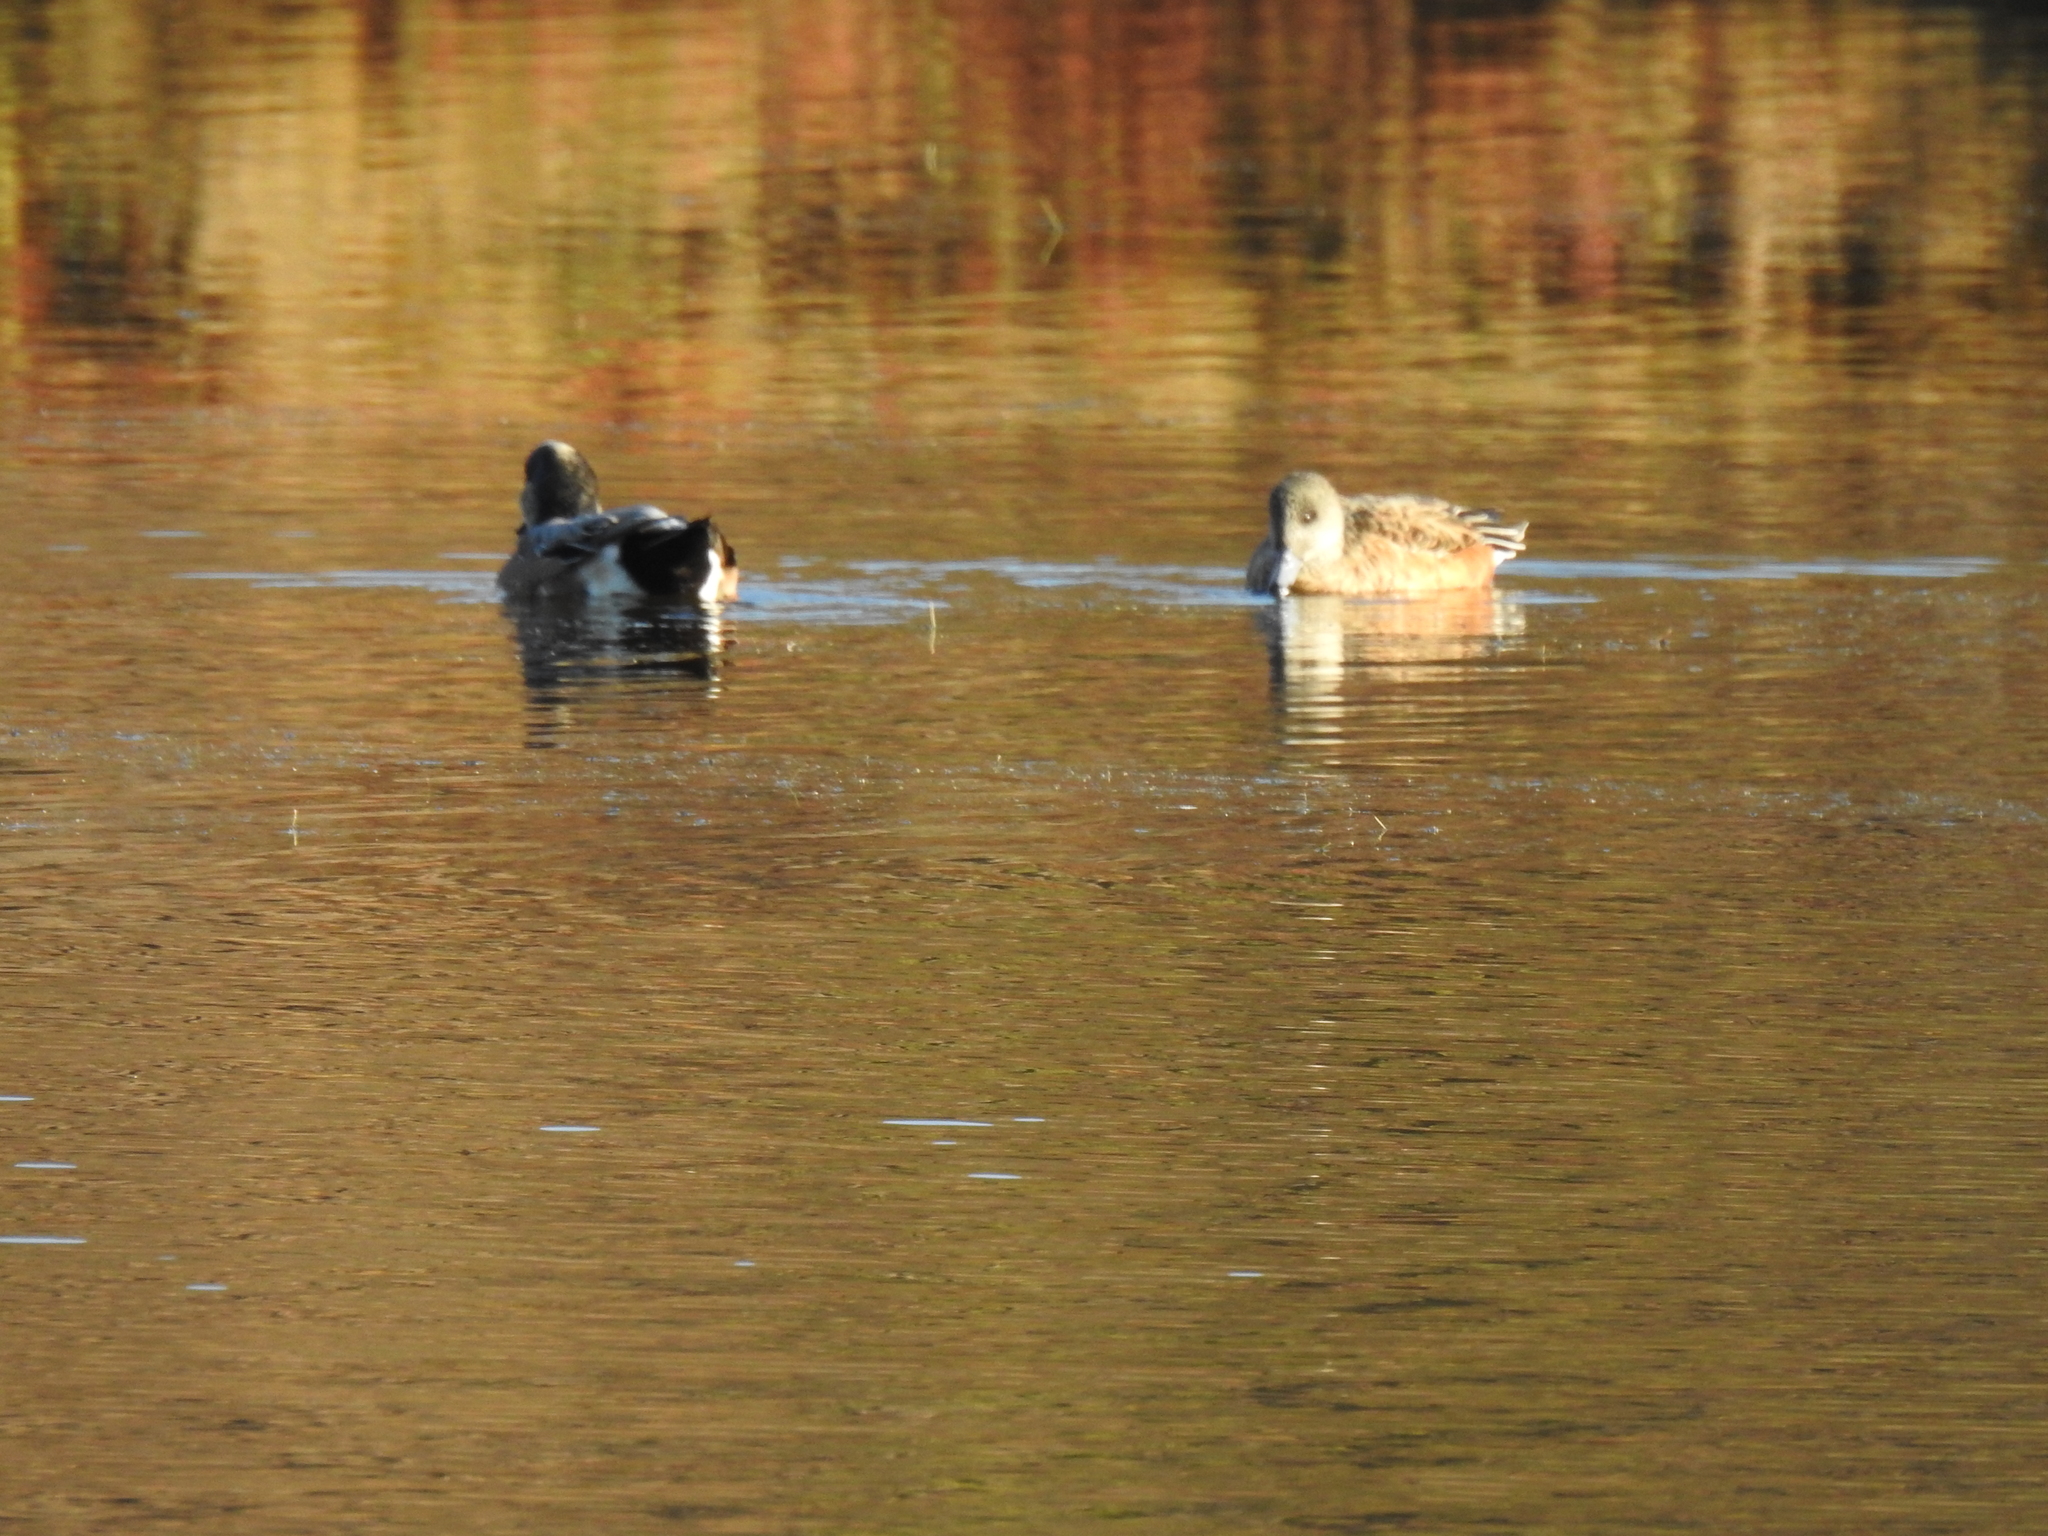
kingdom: Animalia
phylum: Chordata
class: Aves
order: Anseriformes
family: Anatidae
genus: Mareca
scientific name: Mareca americana
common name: American wigeon
